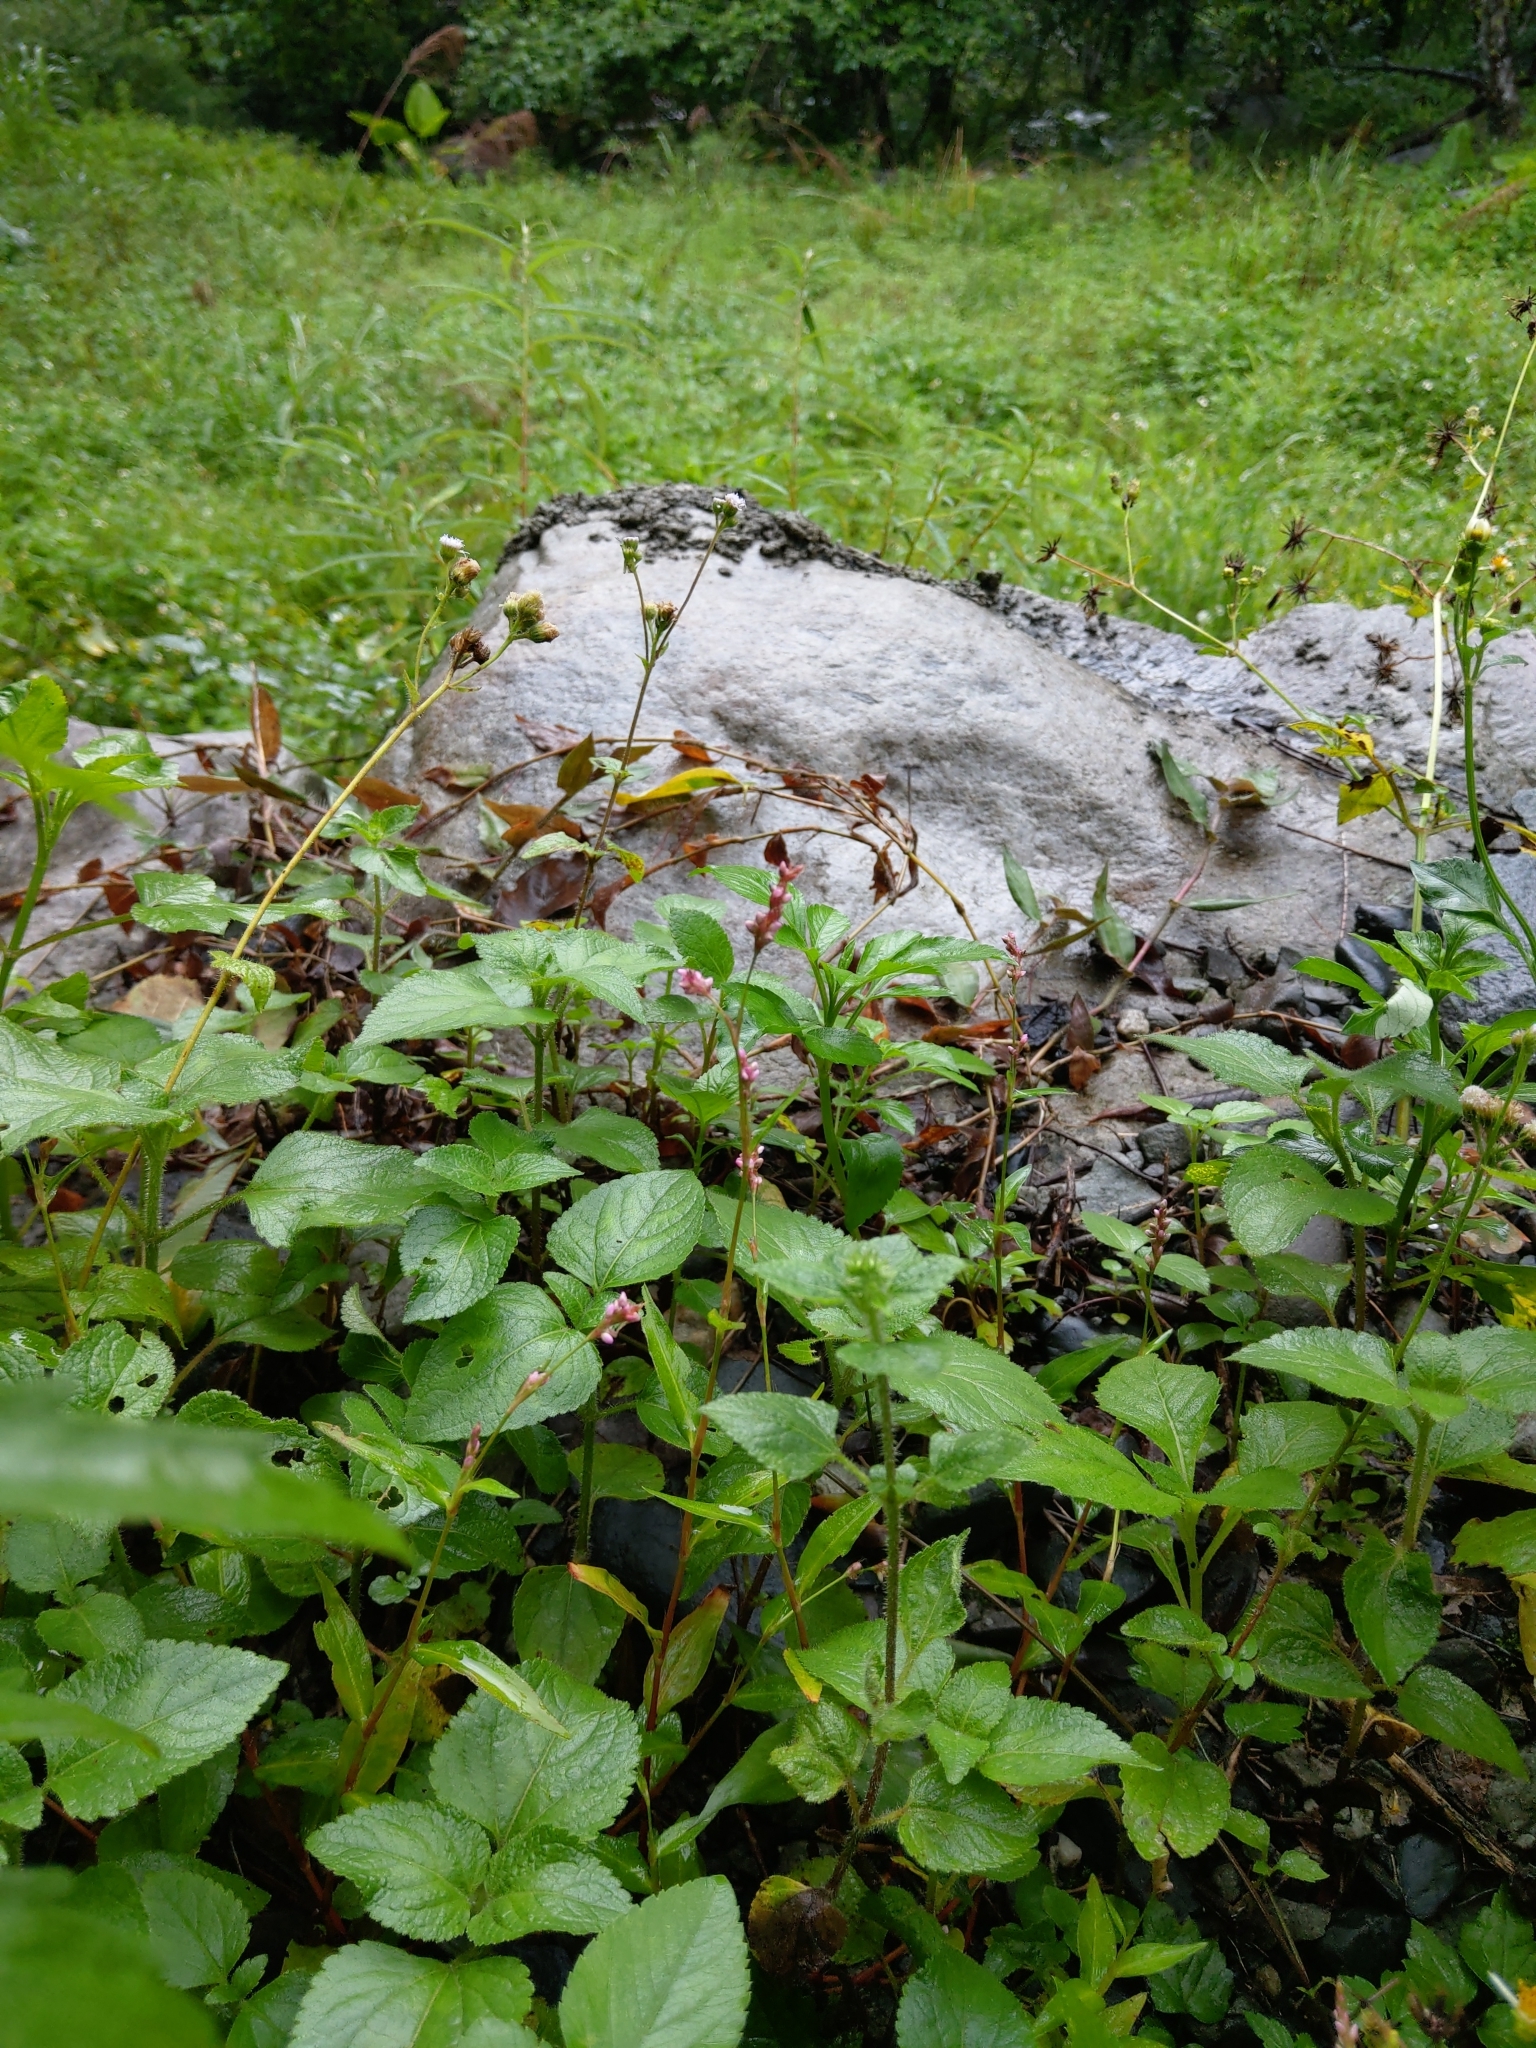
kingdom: Plantae
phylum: Tracheophyta
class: Magnoliopsida
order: Caryophyllales
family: Polygonaceae
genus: Persicaria
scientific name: Persicaria longiseta
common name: Bristly lady's-thumb
